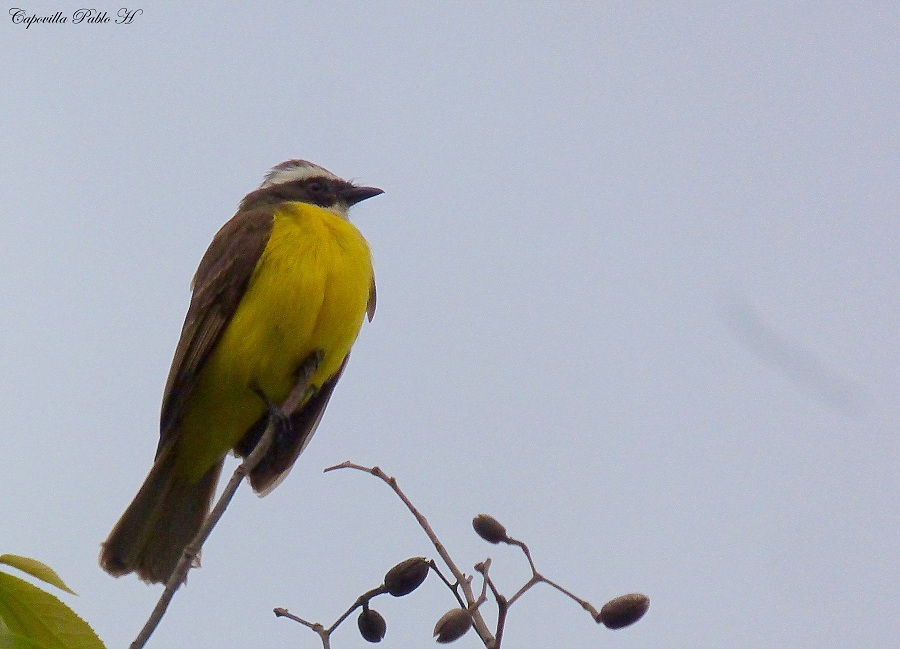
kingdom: Animalia
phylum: Chordata
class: Aves
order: Passeriformes
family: Tyrannidae
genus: Myiozetetes
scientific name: Myiozetetes similis
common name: Social flycatcher
